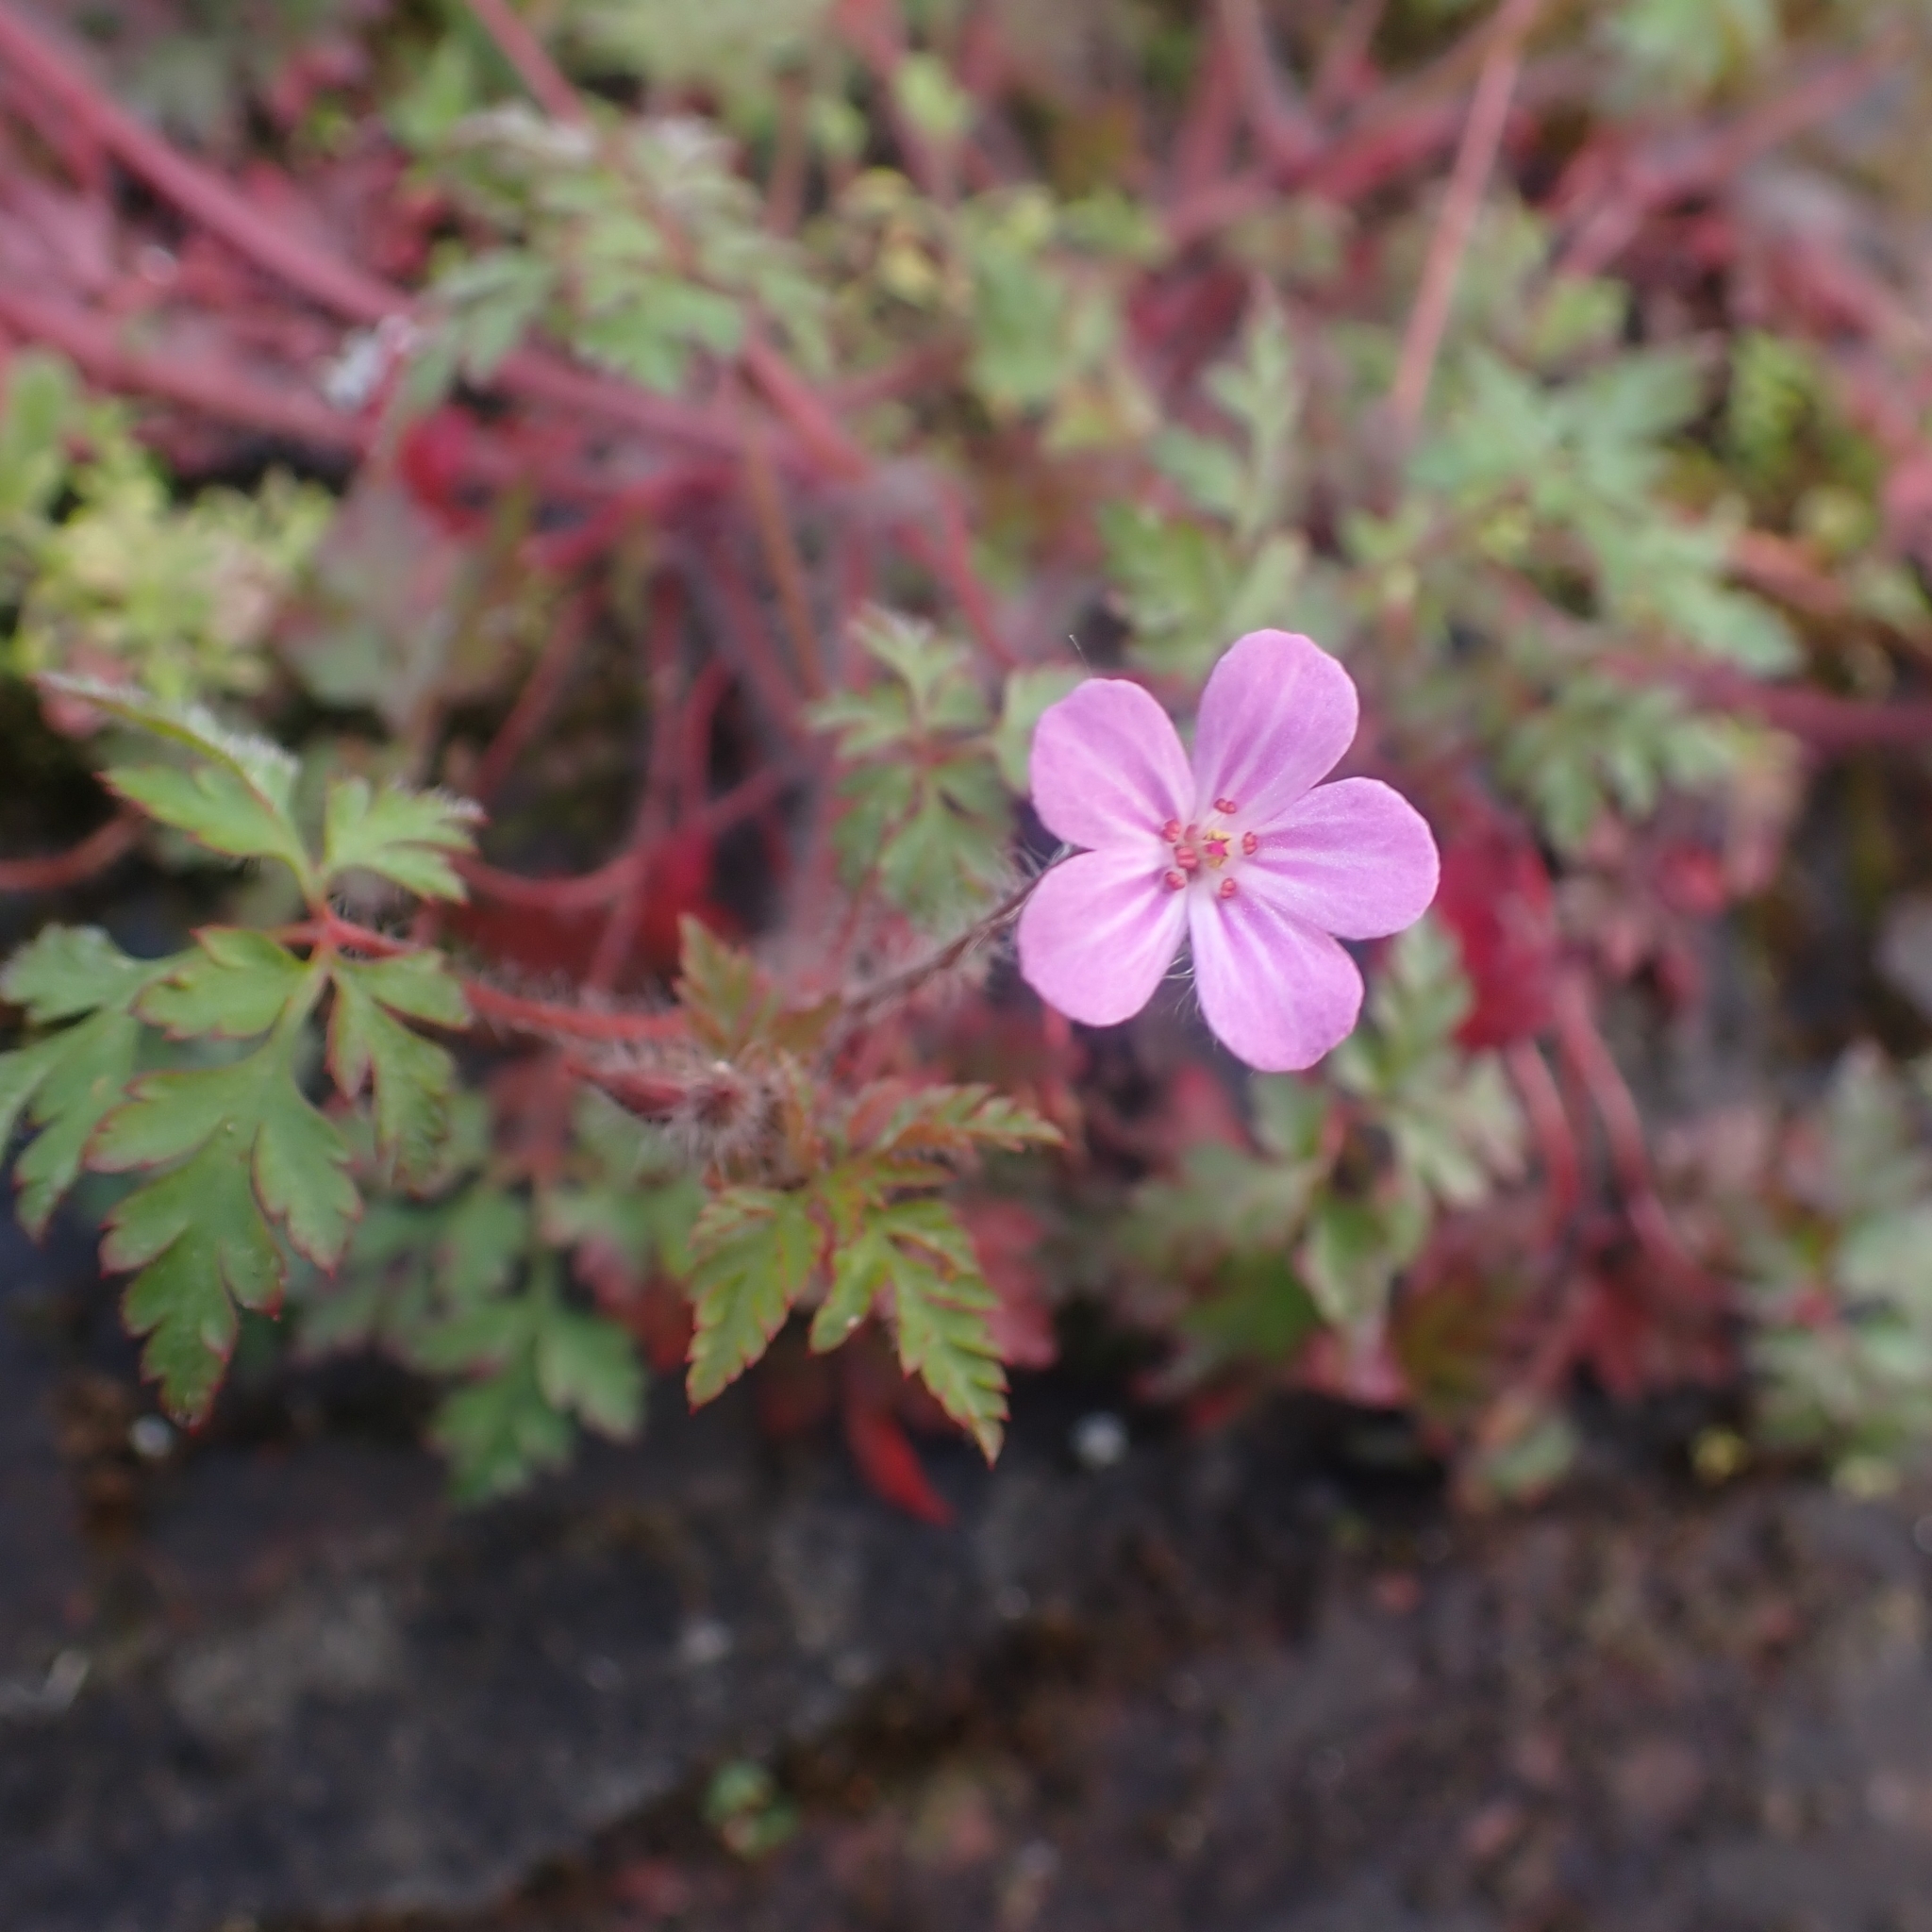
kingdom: Plantae
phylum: Tracheophyta
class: Magnoliopsida
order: Geraniales
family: Geraniaceae
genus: Geranium
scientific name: Geranium robertianum
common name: Herb-robert
